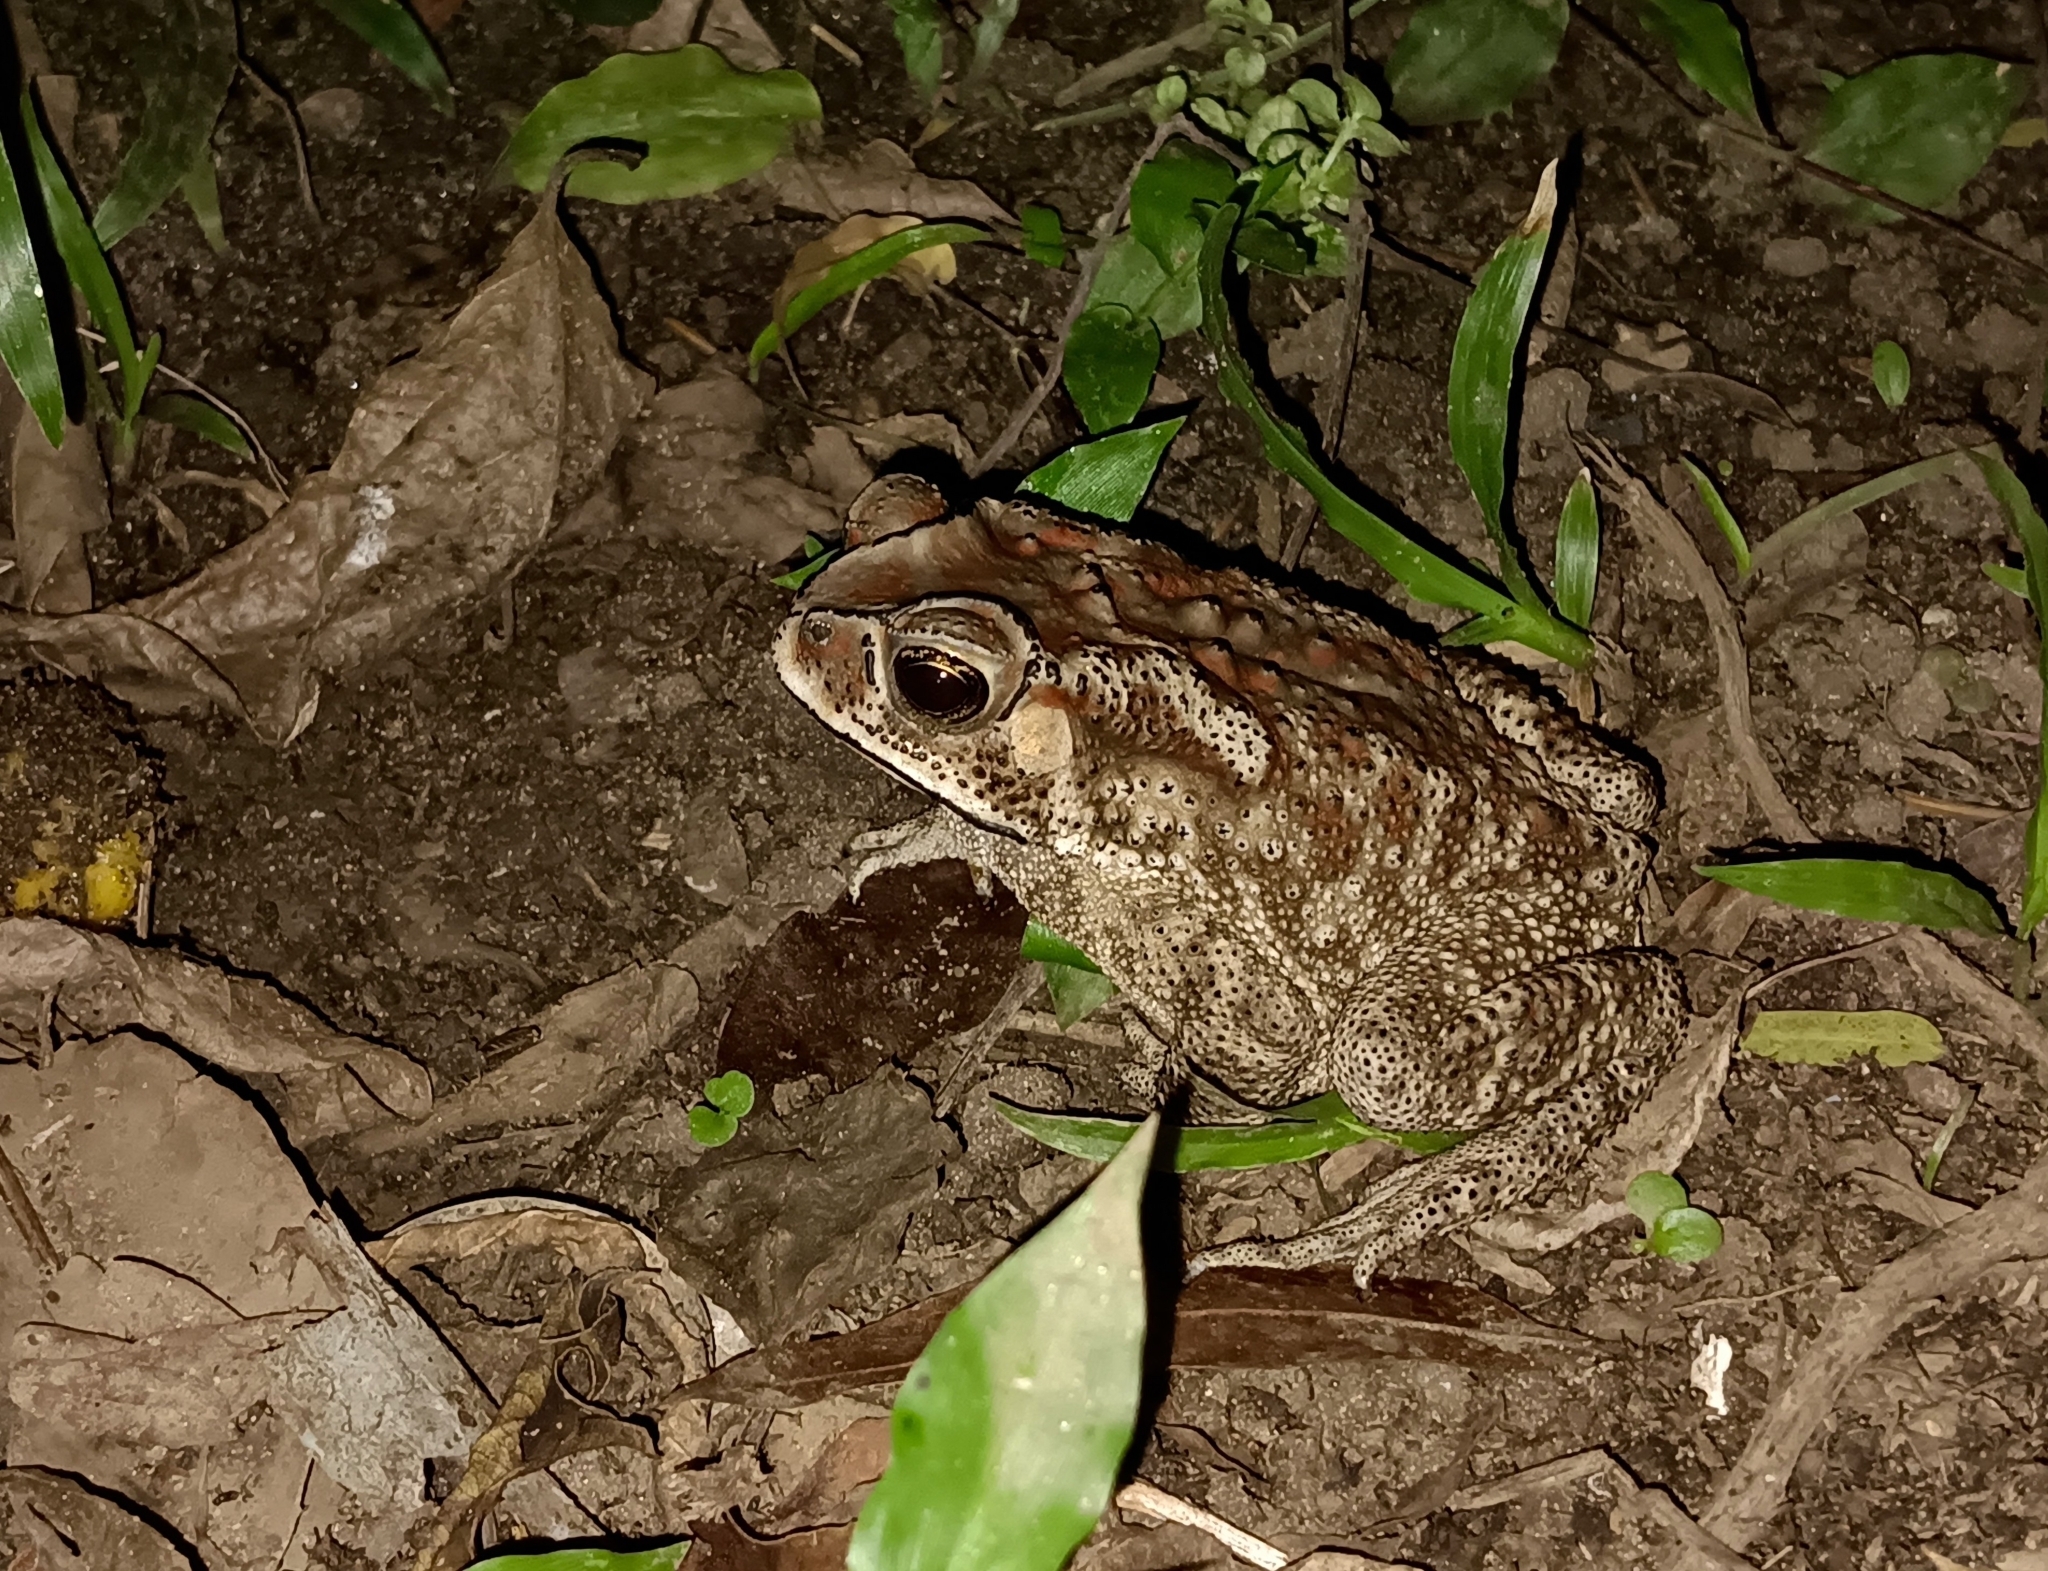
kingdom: Animalia
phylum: Chordata
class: Amphibia
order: Anura
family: Bufonidae
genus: Duttaphrynus
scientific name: Duttaphrynus melanostictus
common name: Common sunda toad
